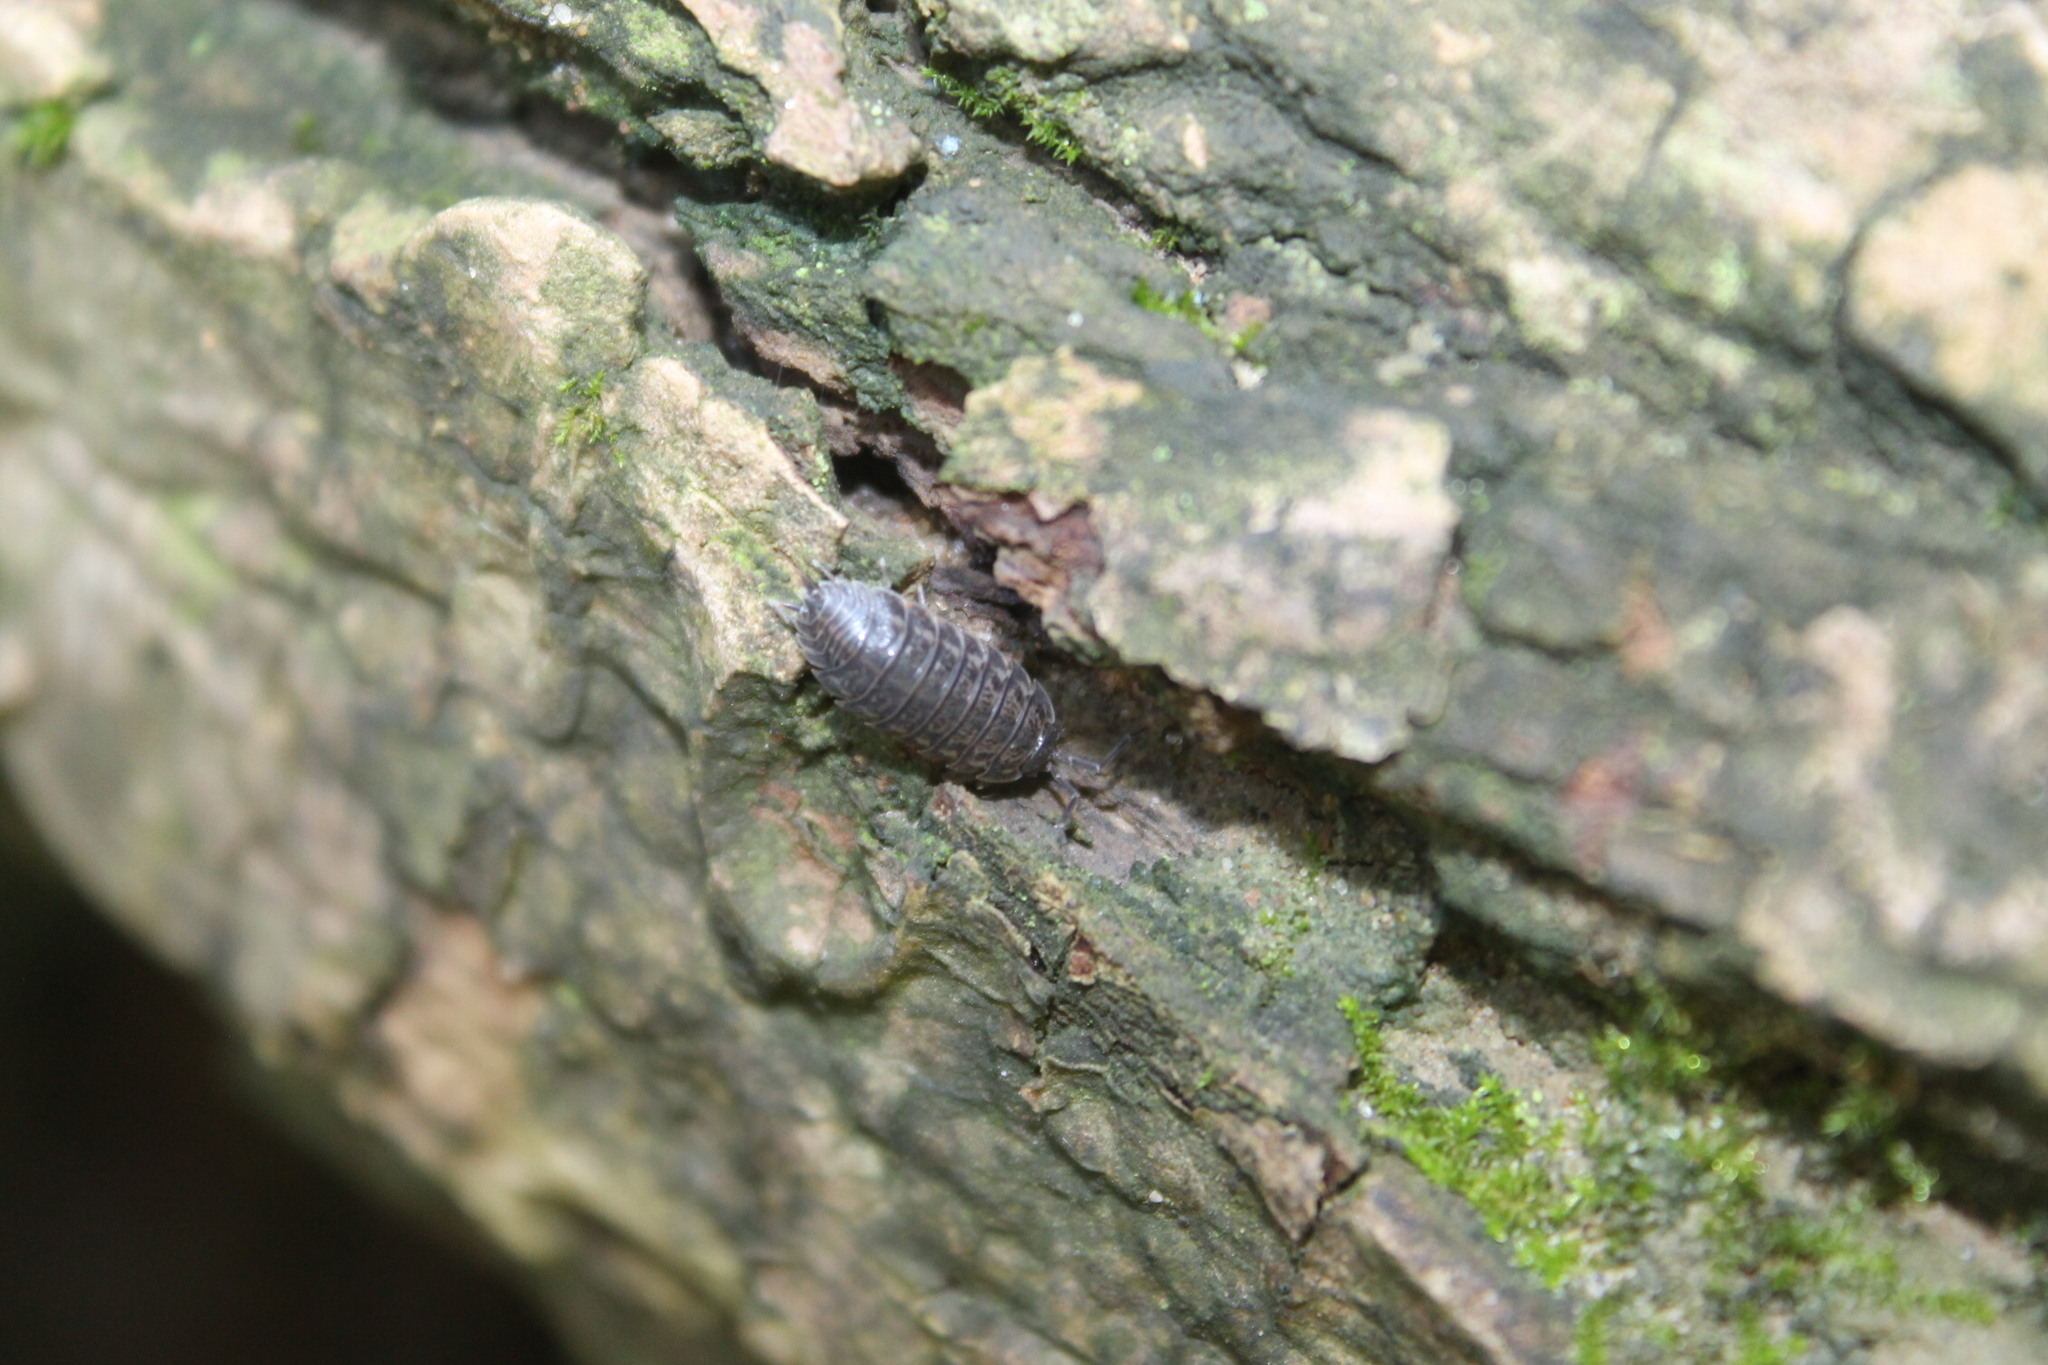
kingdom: Animalia
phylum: Arthropoda
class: Malacostraca
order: Isopoda
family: Trachelipodidae
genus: Trachelipus
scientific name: Trachelipus rathkii
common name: Isopod
